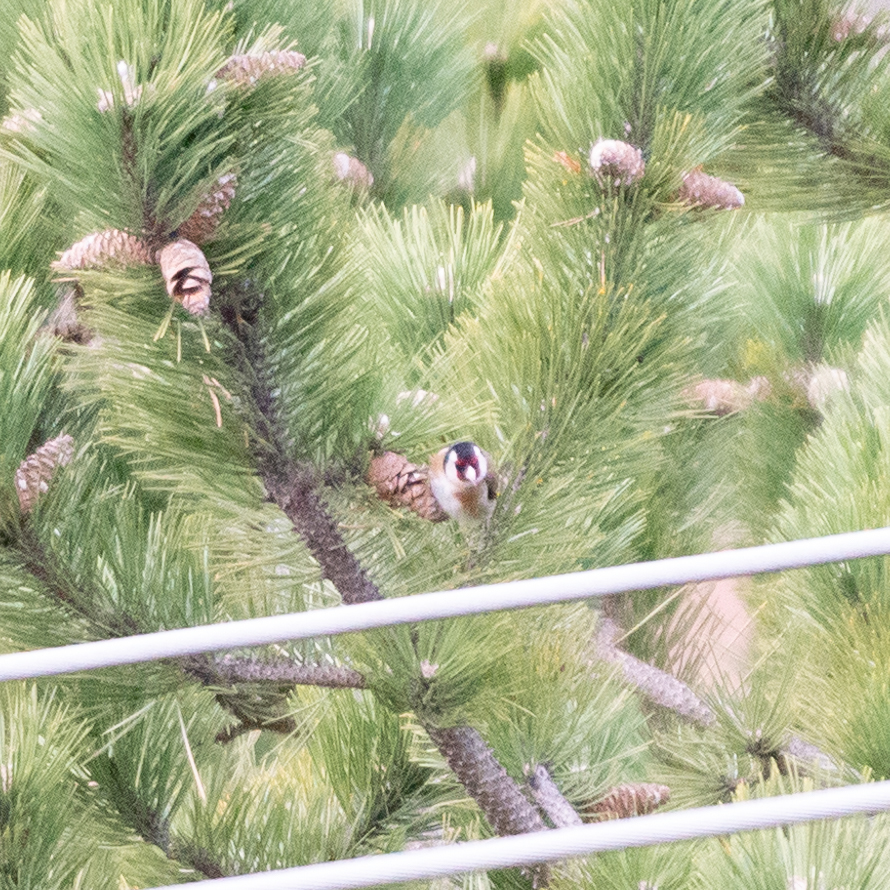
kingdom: Animalia
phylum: Chordata
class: Aves
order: Passeriformes
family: Fringillidae
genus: Carduelis
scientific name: Carduelis carduelis
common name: European goldfinch
